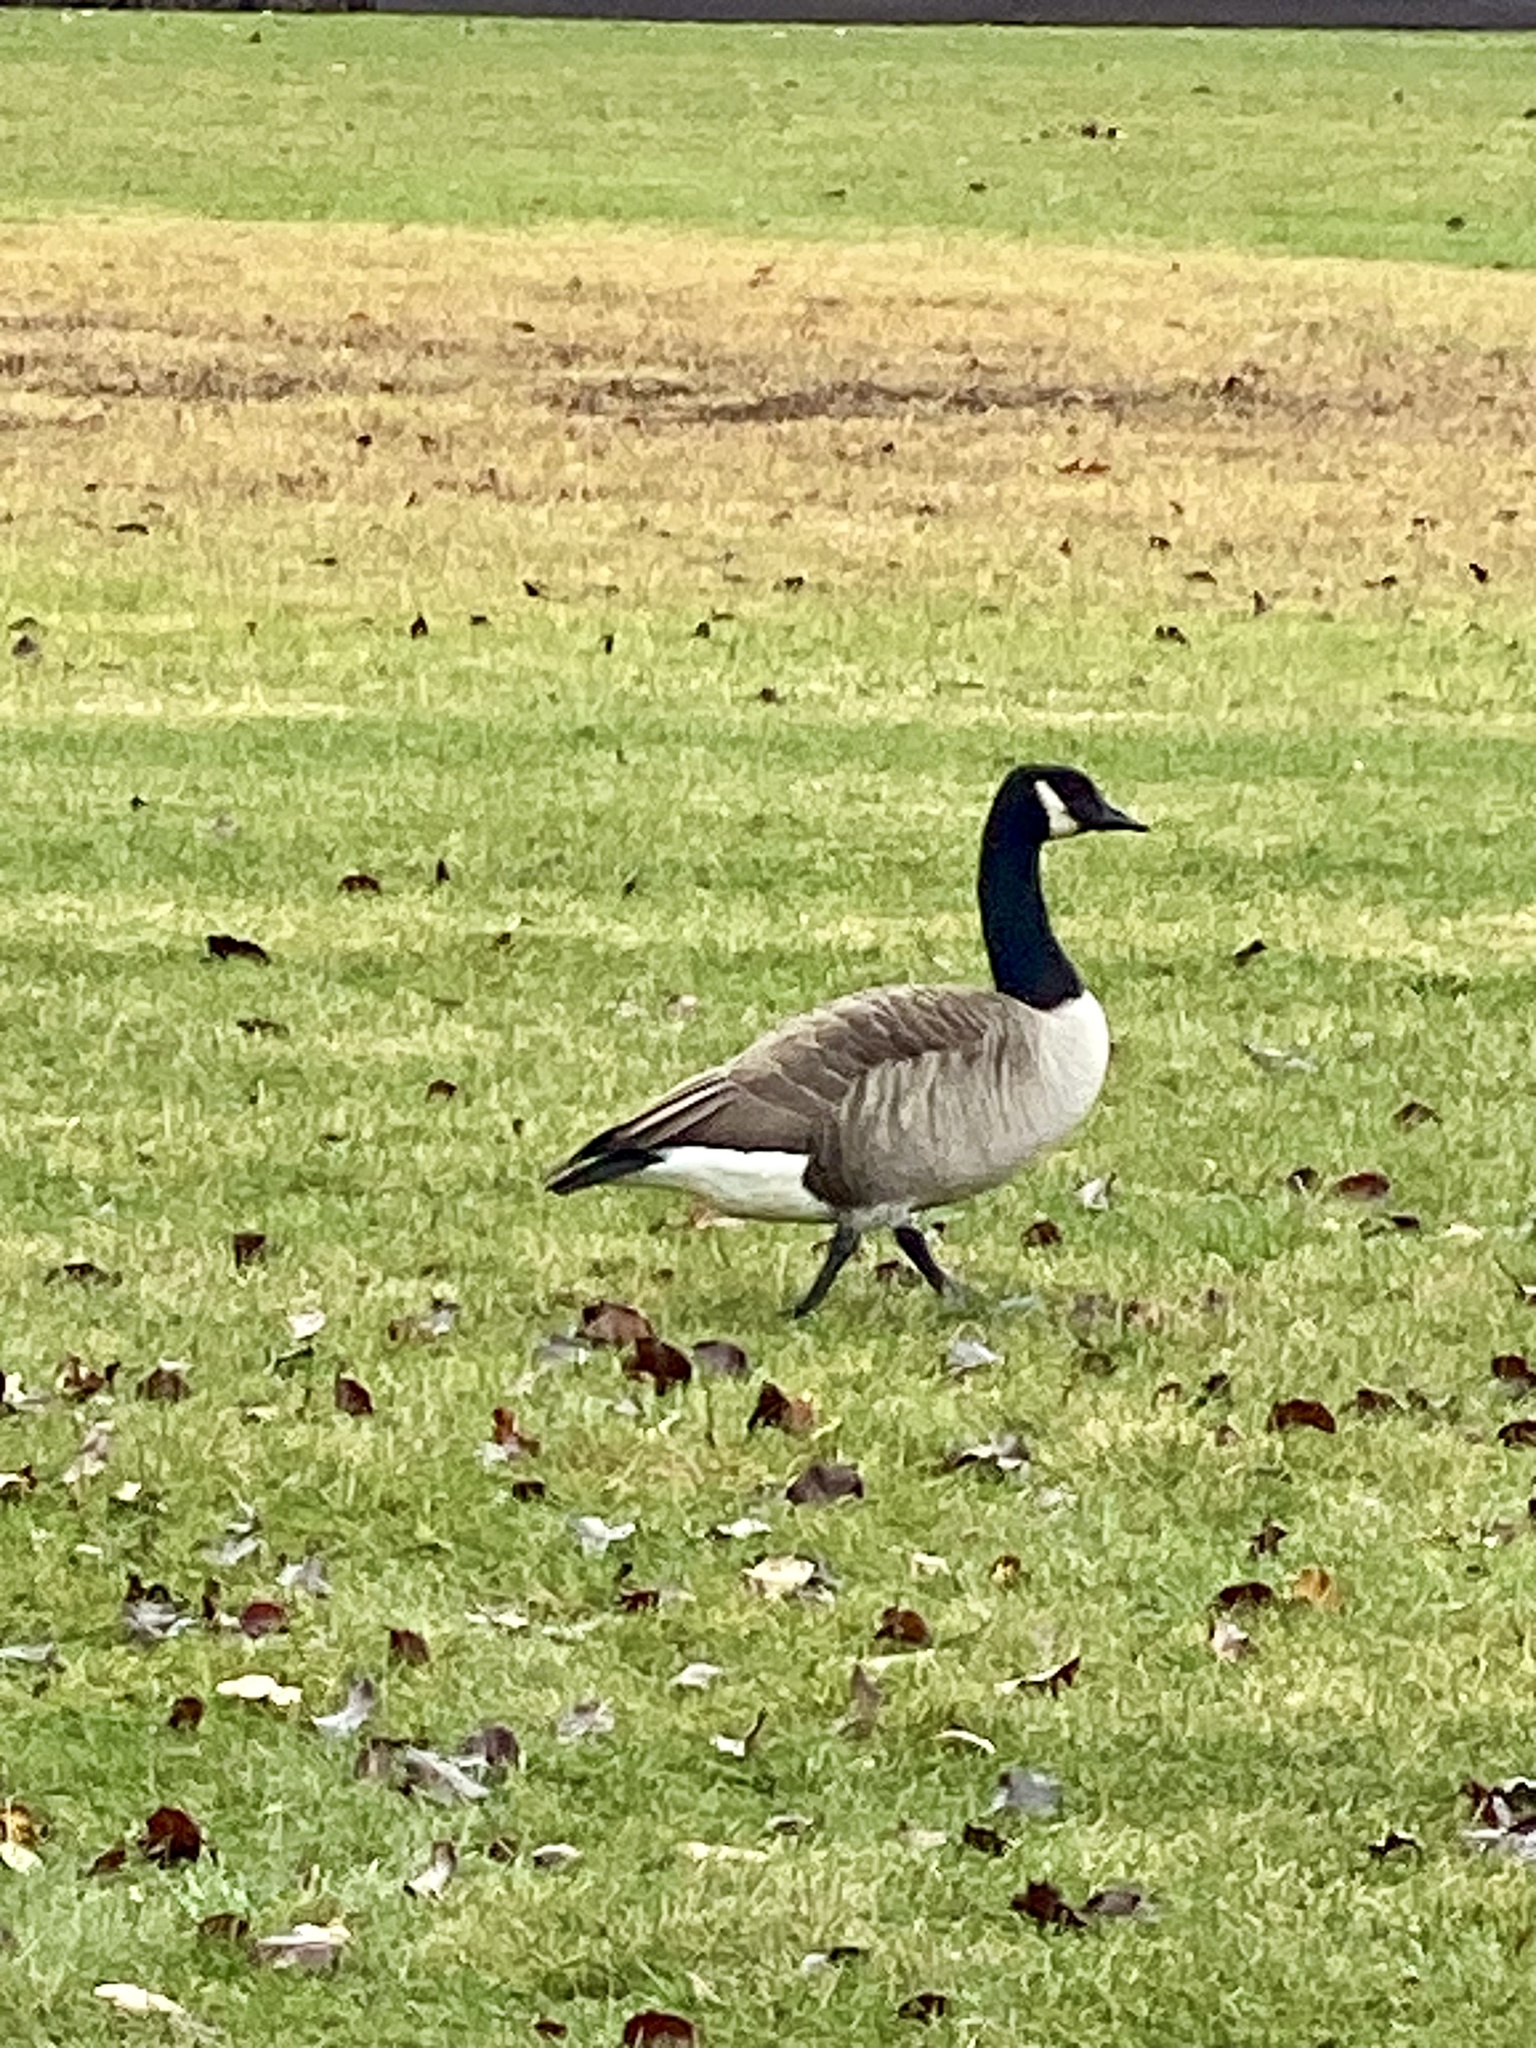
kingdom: Animalia
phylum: Chordata
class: Aves
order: Anseriformes
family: Anatidae
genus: Branta
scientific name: Branta canadensis
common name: Canada goose
